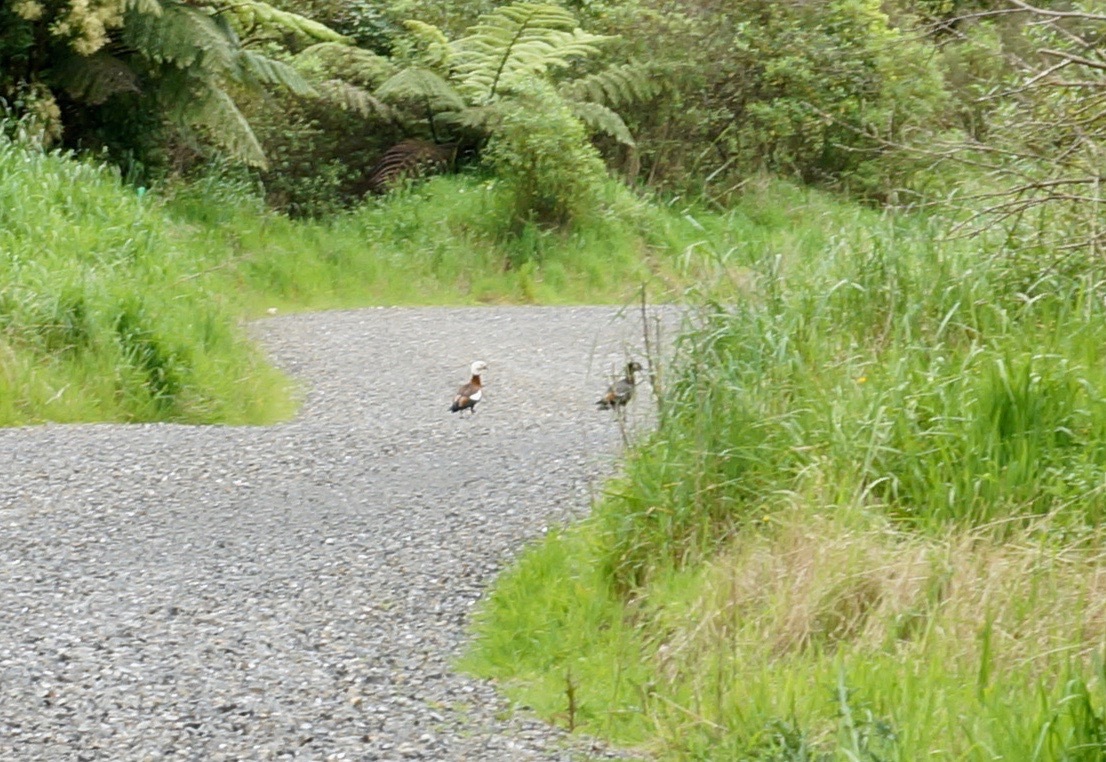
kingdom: Animalia
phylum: Chordata
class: Aves
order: Anseriformes
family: Anatidae
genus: Tadorna
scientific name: Tadorna variegata
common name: Paradise shelduck
